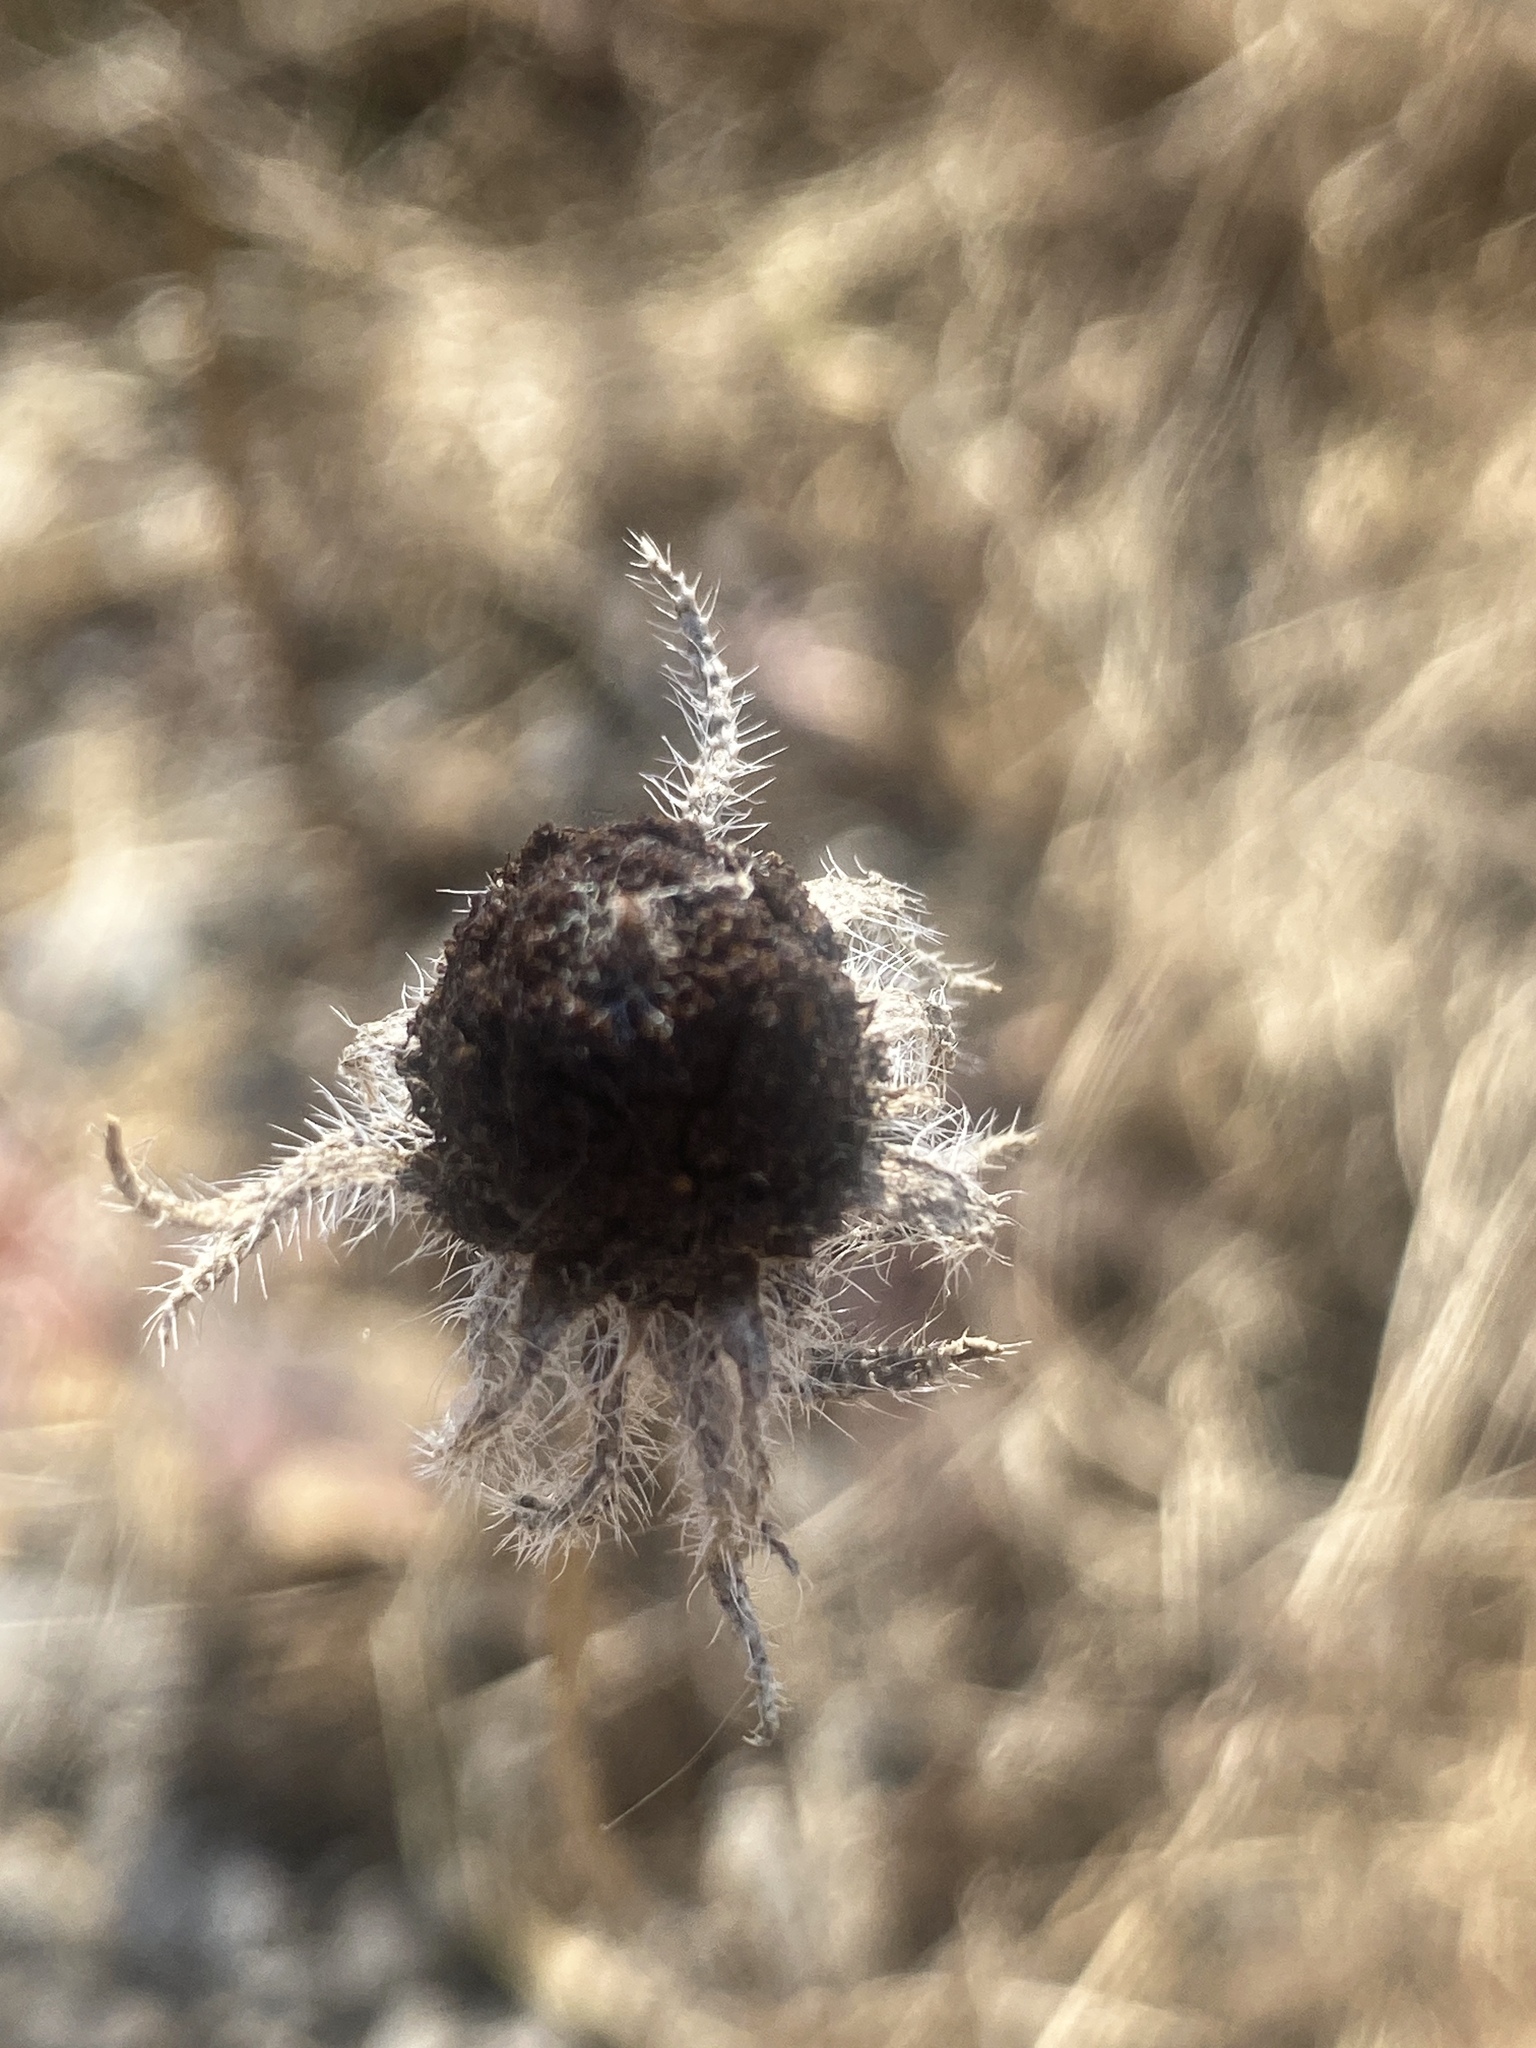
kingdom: Plantae
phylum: Tracheophyta
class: Magnoliopsida
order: Asterales
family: Asteraceae
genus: Rudbeckia
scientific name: Rudbeckia hirta
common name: Black-eyed-susan
